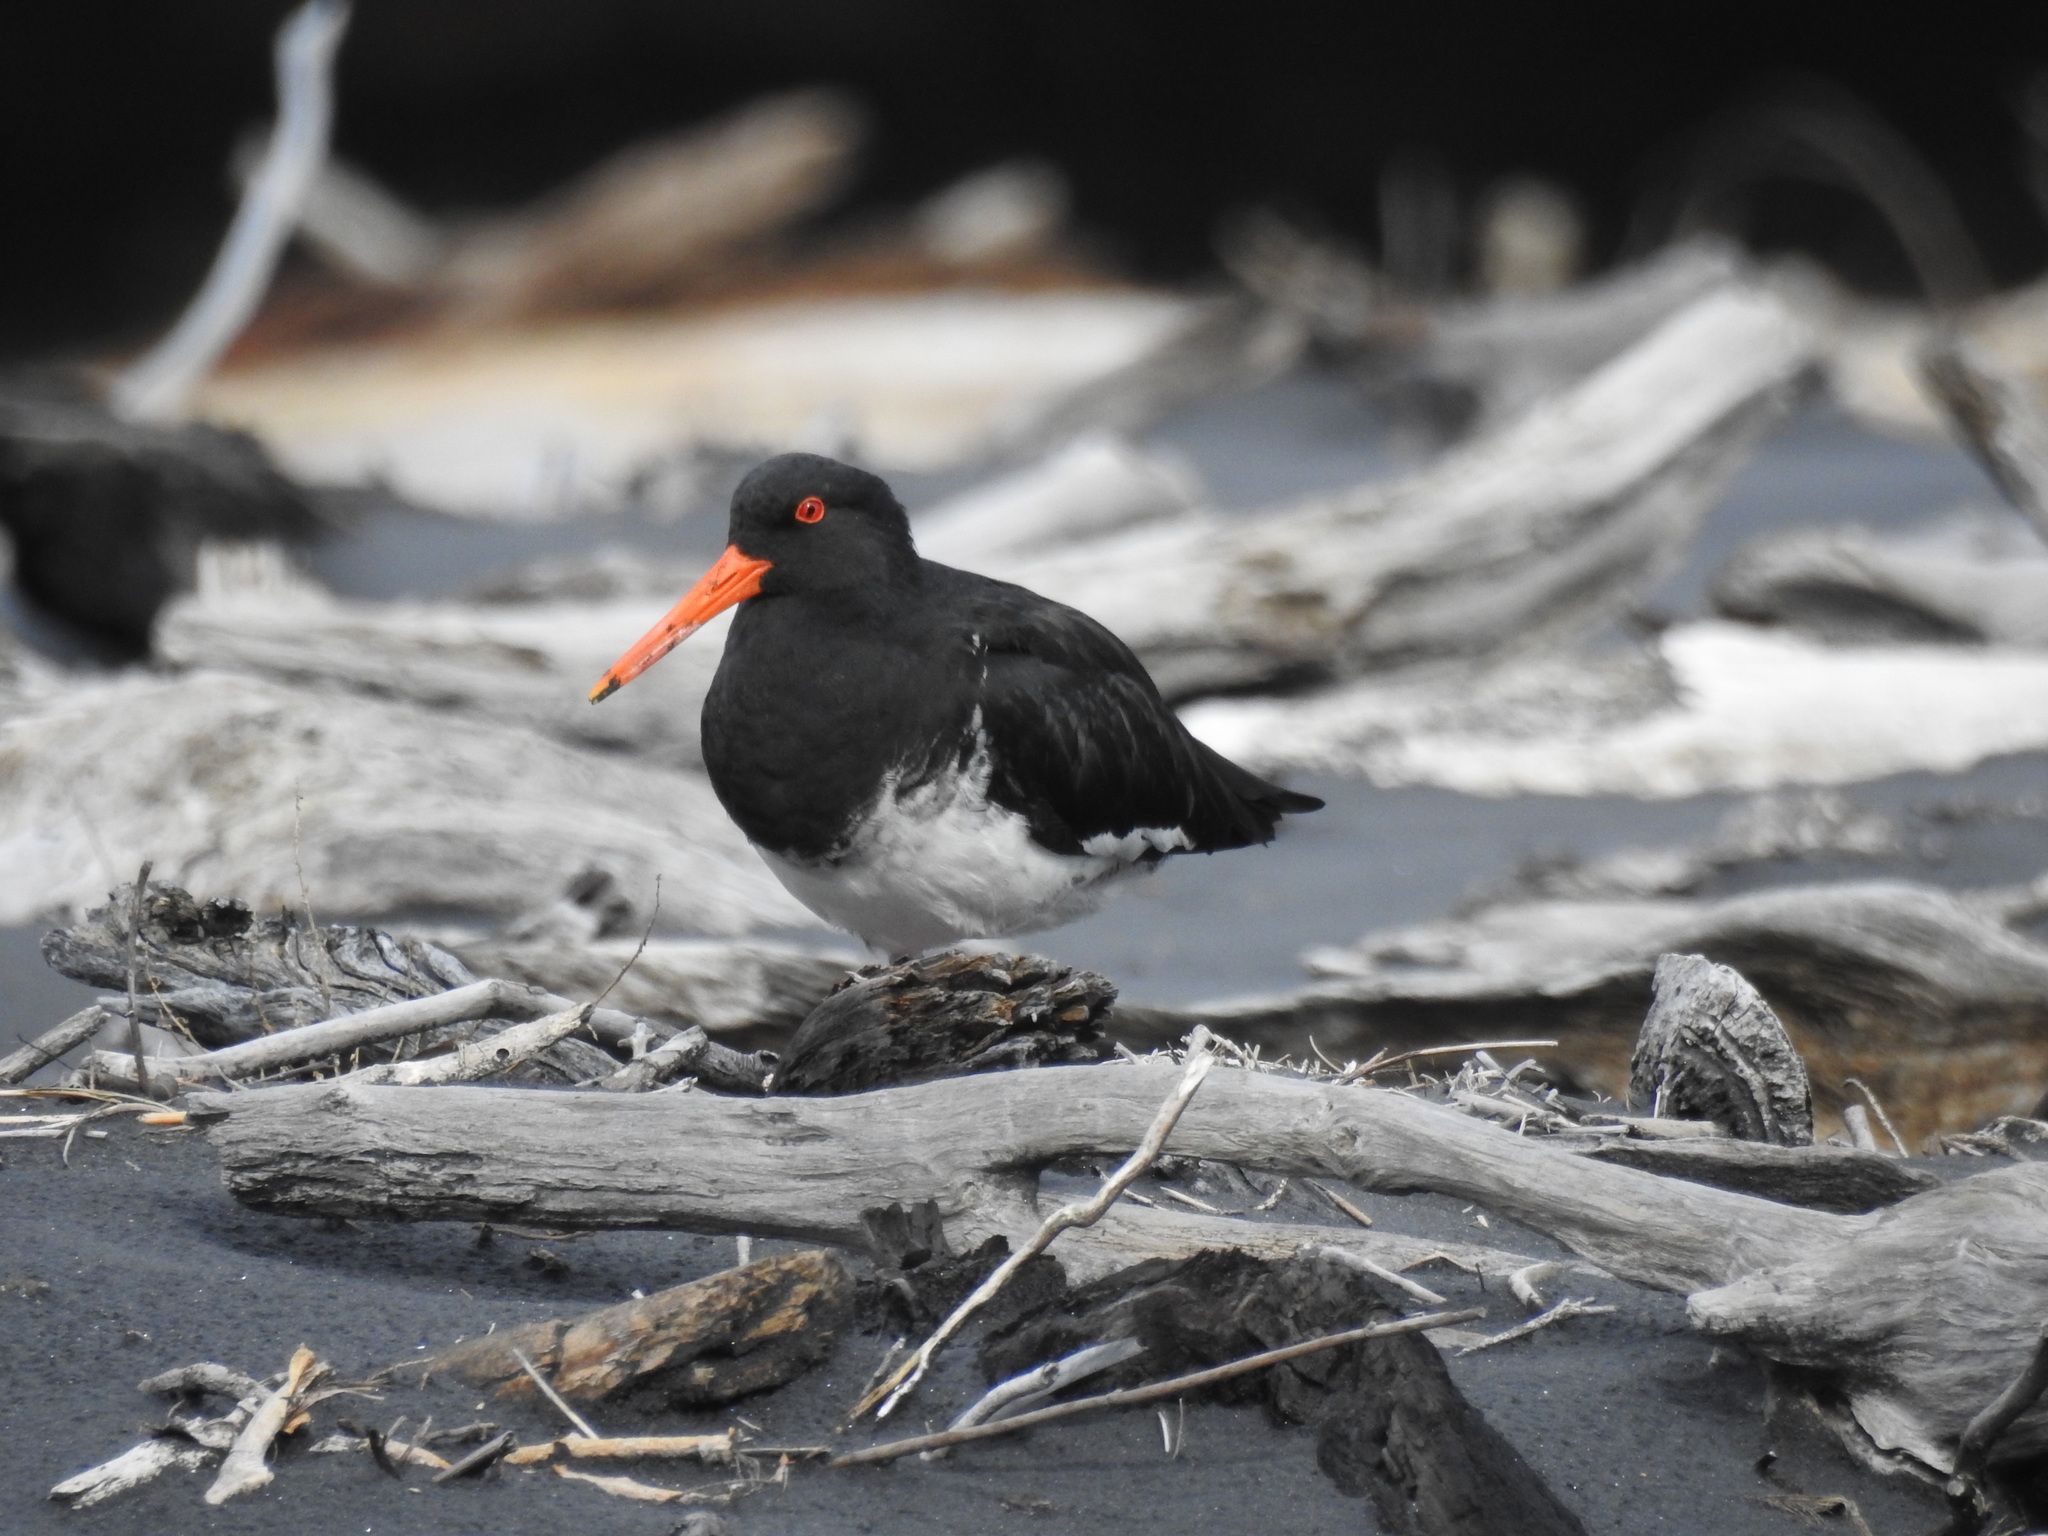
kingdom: Animalia
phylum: Chordata
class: Aves
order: Charadriiformes
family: Haematopodidae
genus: Haematopus
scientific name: Haematopus unicolor
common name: Variable oystercatcher
